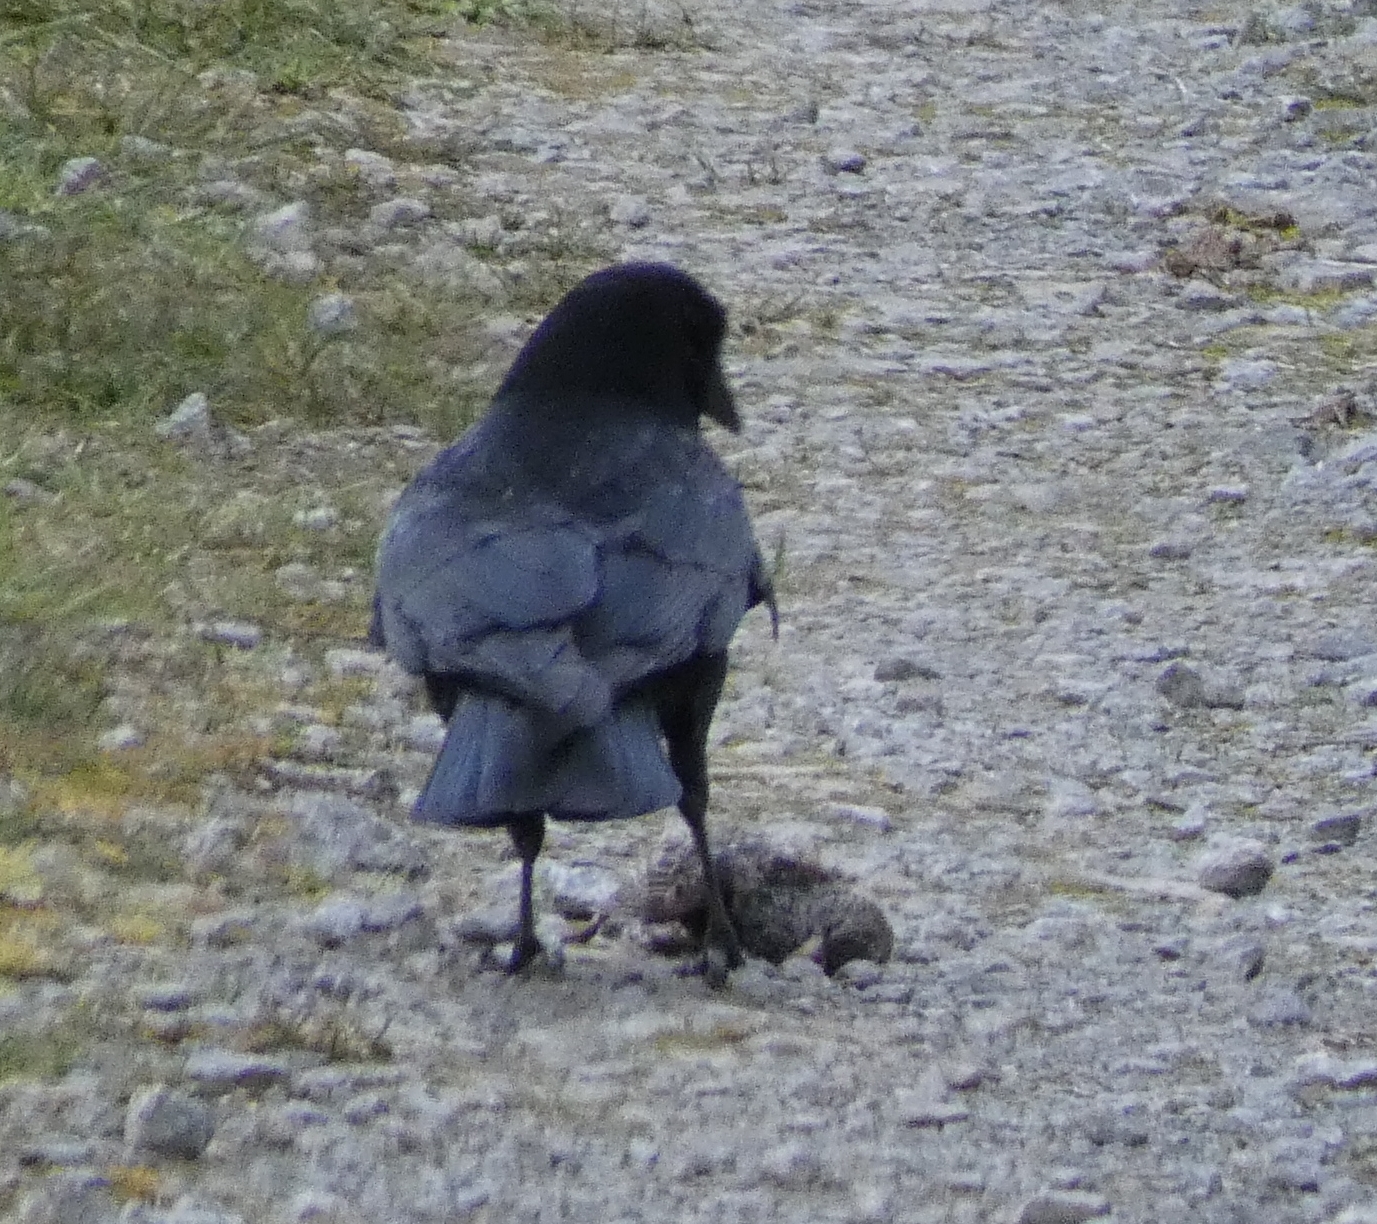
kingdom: Animalia
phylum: Chordata
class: Aves
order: Passeriformes
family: Sturnidae
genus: Sturnus
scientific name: Sturnus vulgaris
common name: Common starling
